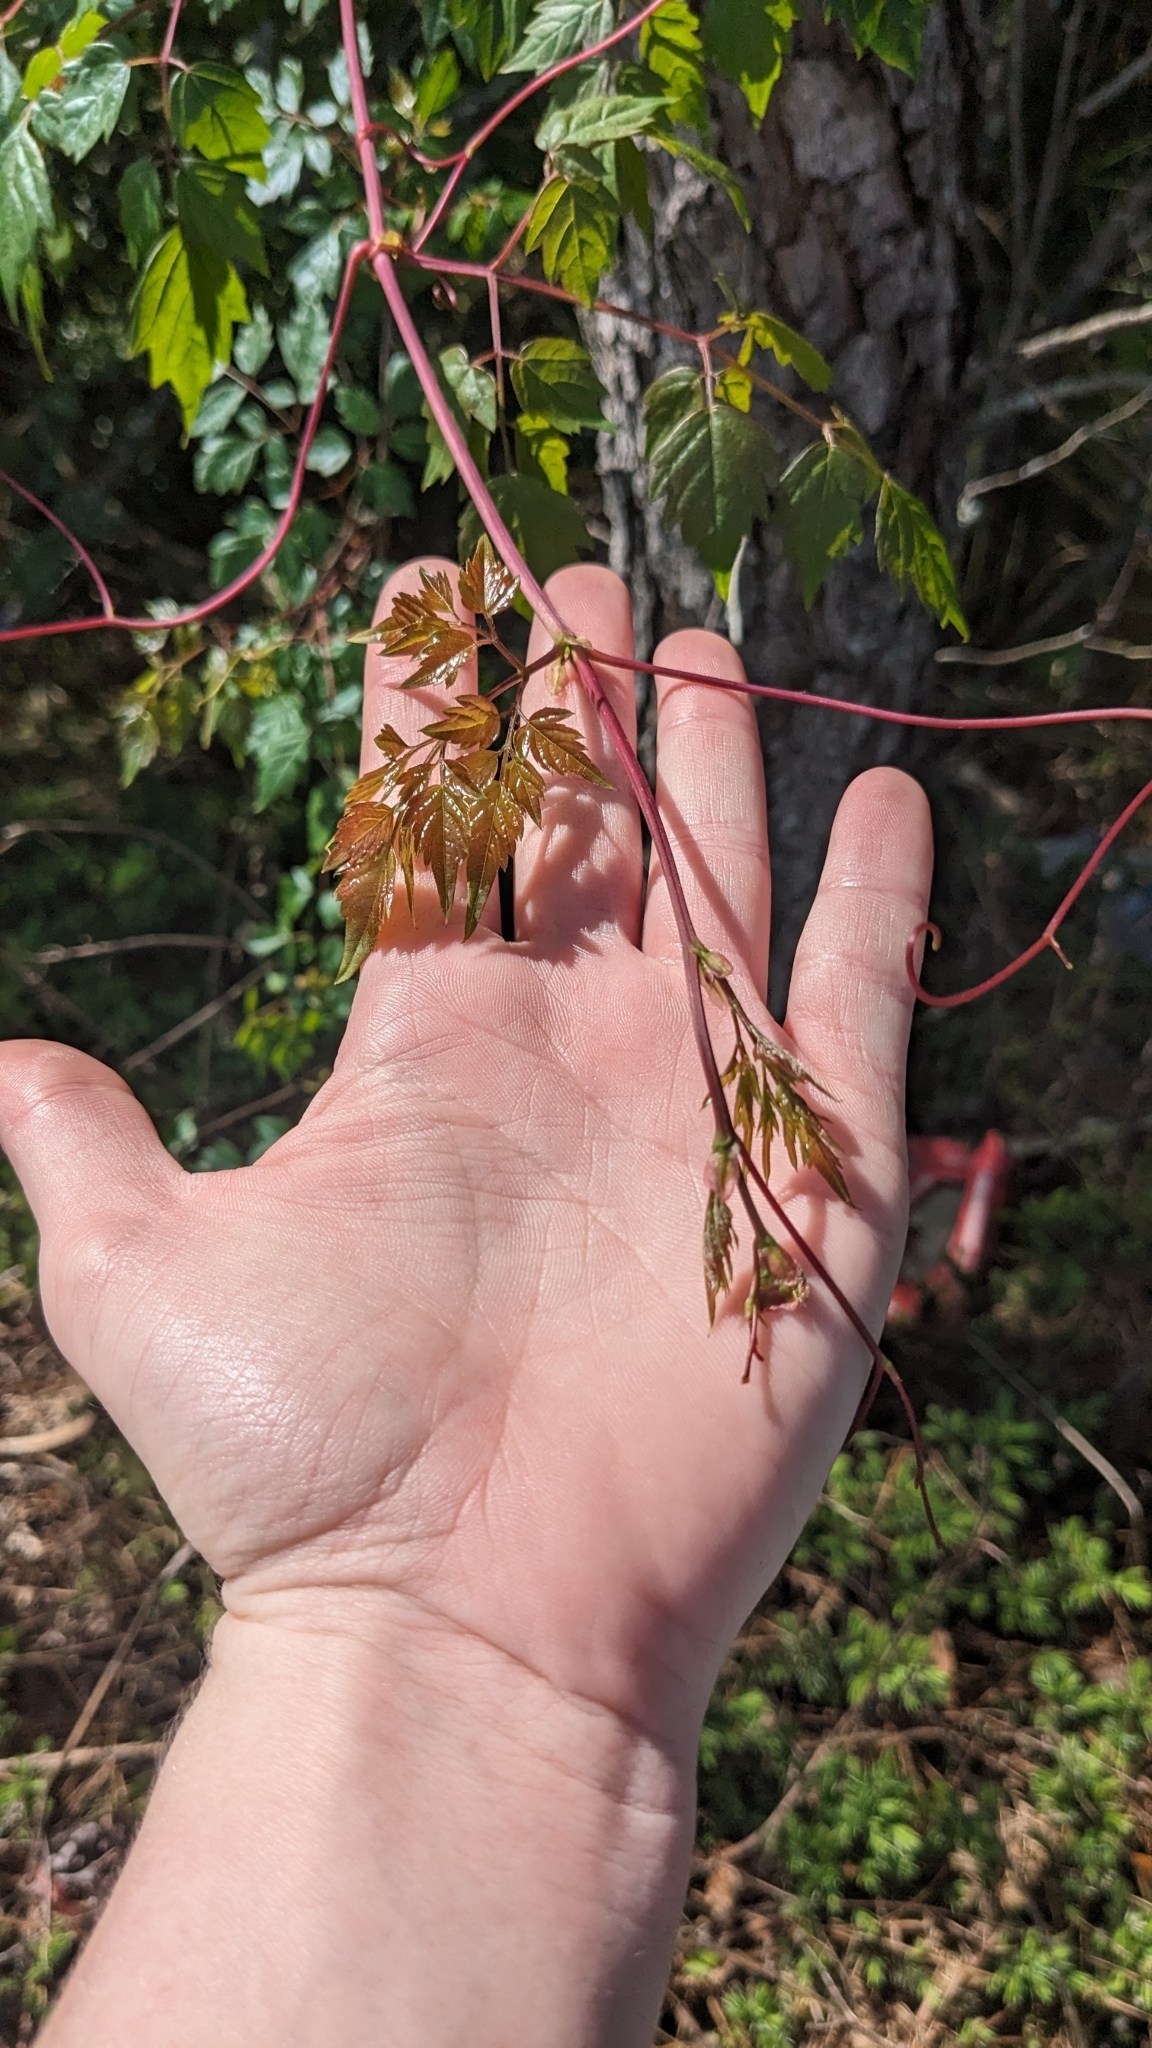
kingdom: Plantae
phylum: Tracheophyta
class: Magnoliopsida
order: Vitales
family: Vitaceae
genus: Nekemias
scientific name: Nekemias arborea
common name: Peppervine
